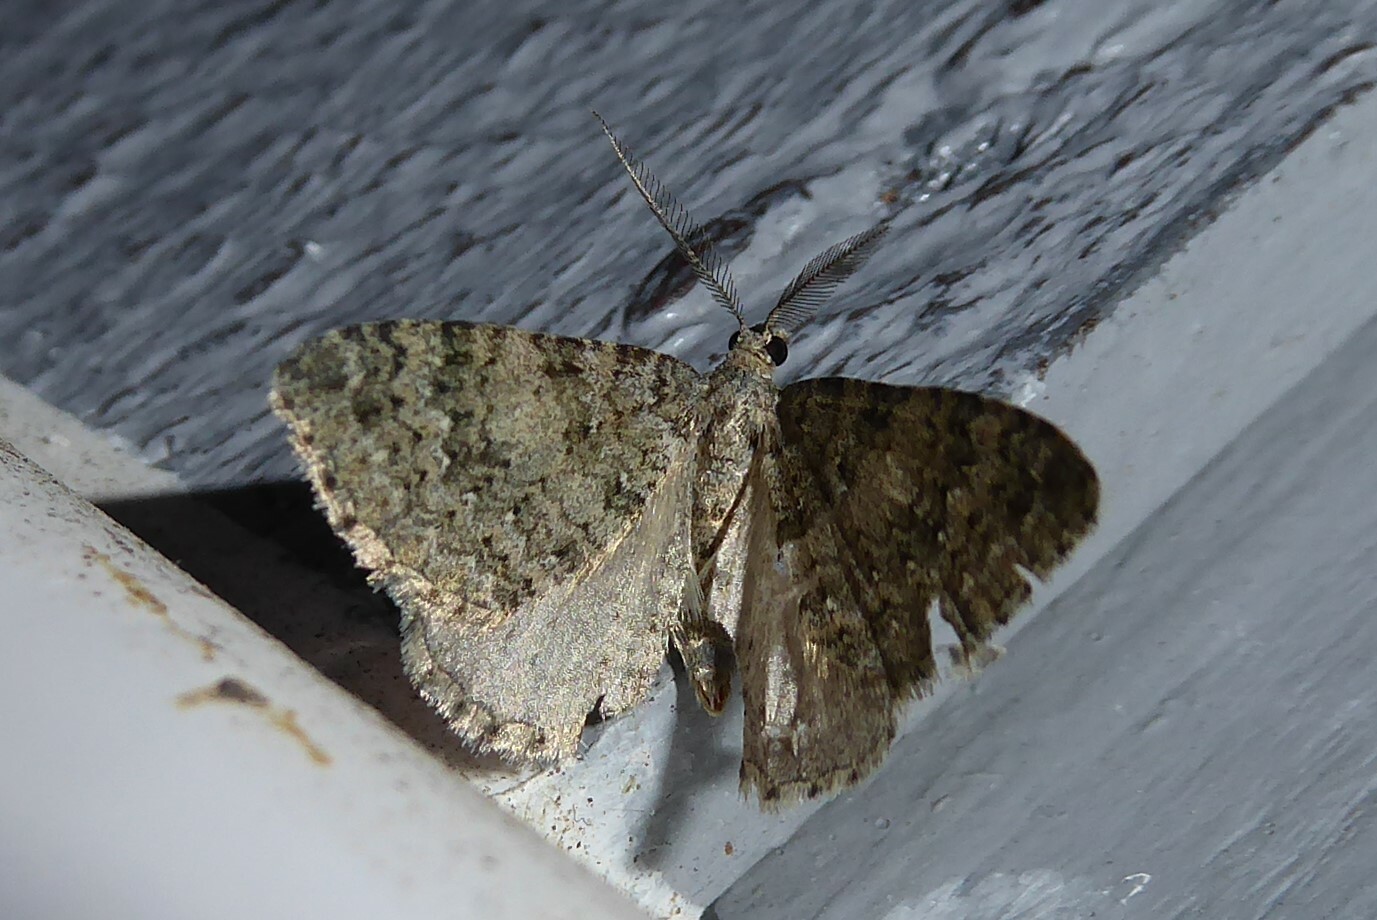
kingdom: Animalia
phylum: Arthropoda
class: Insecta
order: Lepidoptera
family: Geometridae
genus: Helastia
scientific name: Helastia corcularia
